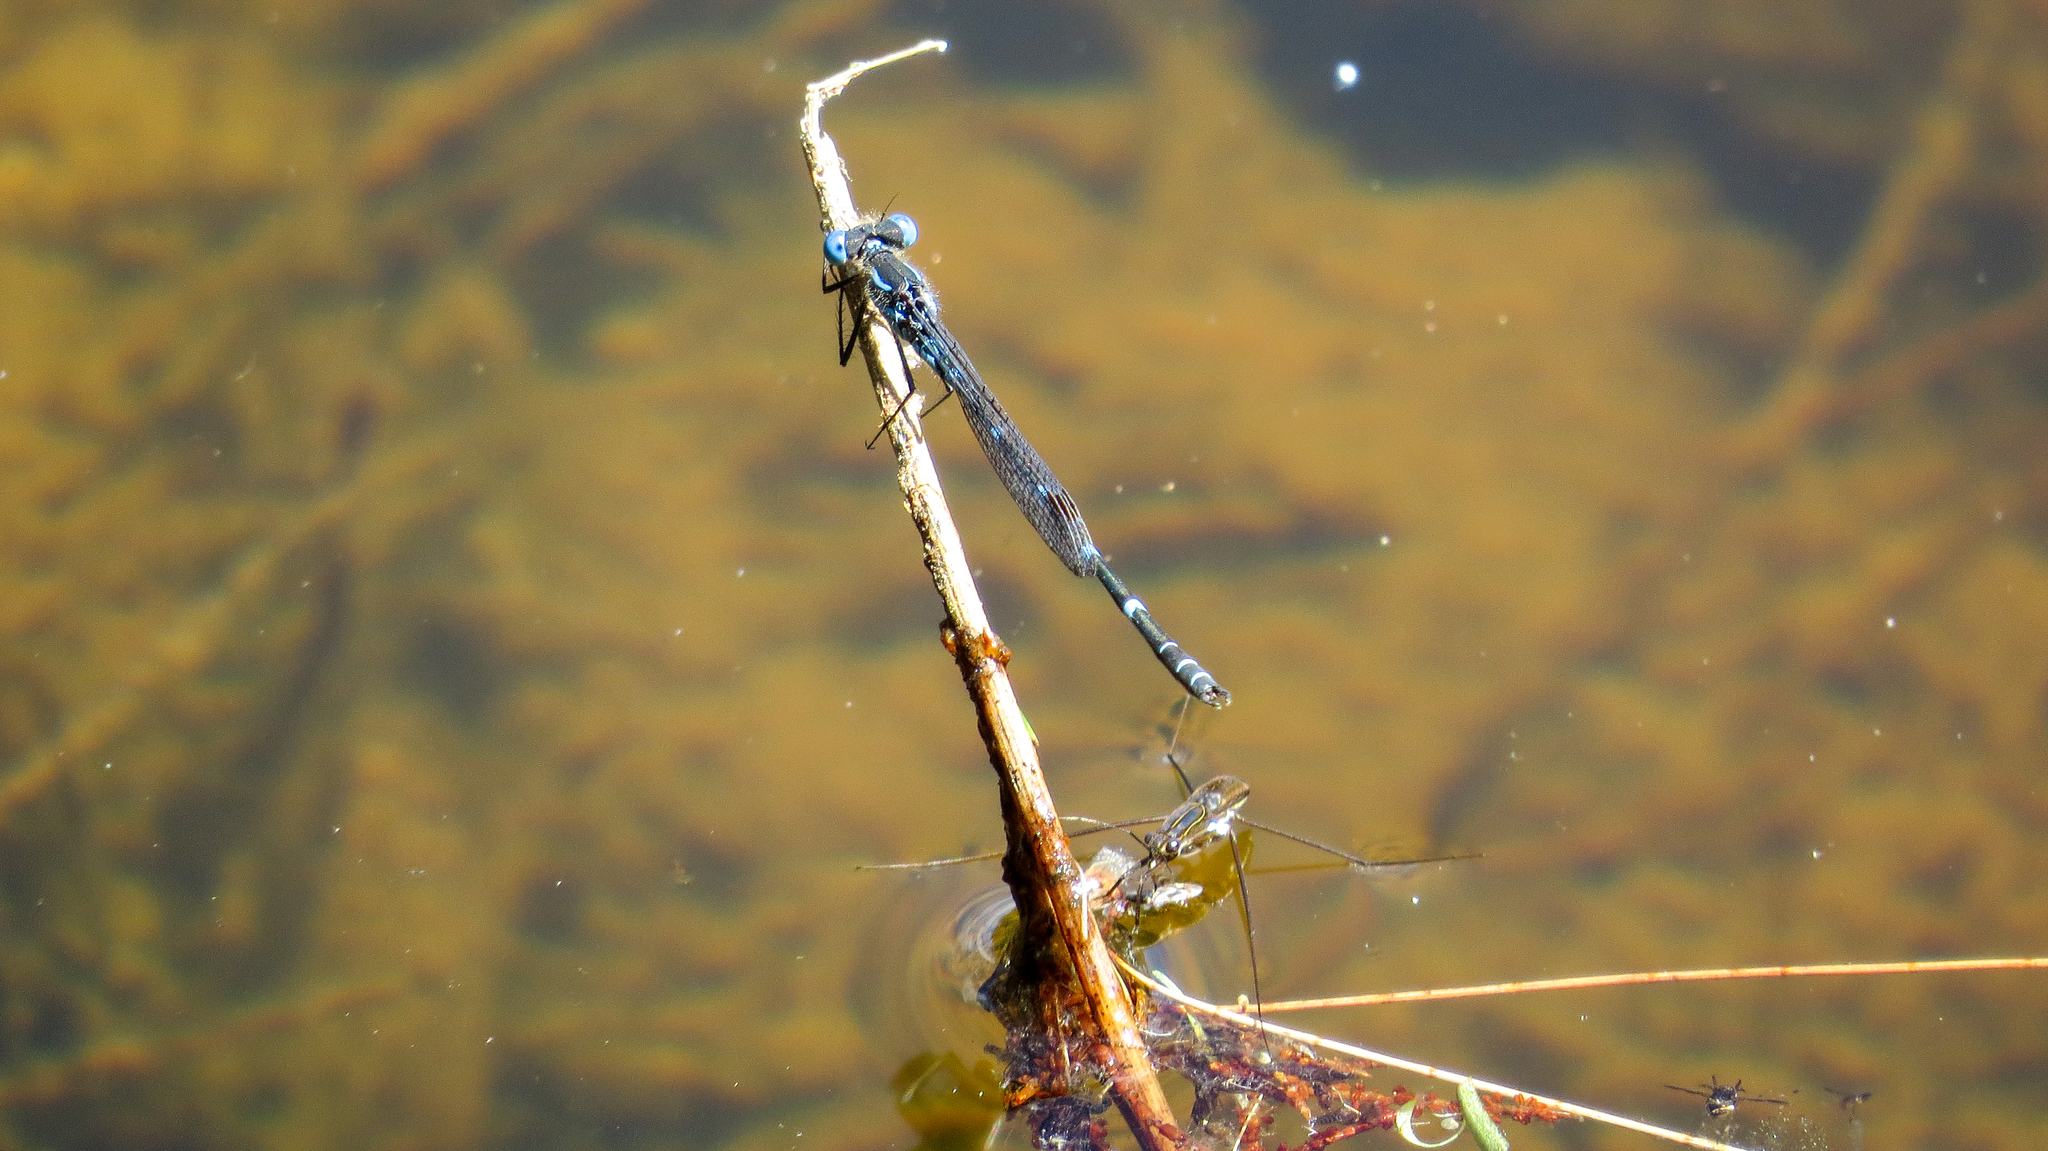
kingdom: Animalia
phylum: Arthropoda
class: Insecta
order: Odonata
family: Lestidae
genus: Austrolestes
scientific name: Austrolestes minjerriba
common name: Dune ringtail
